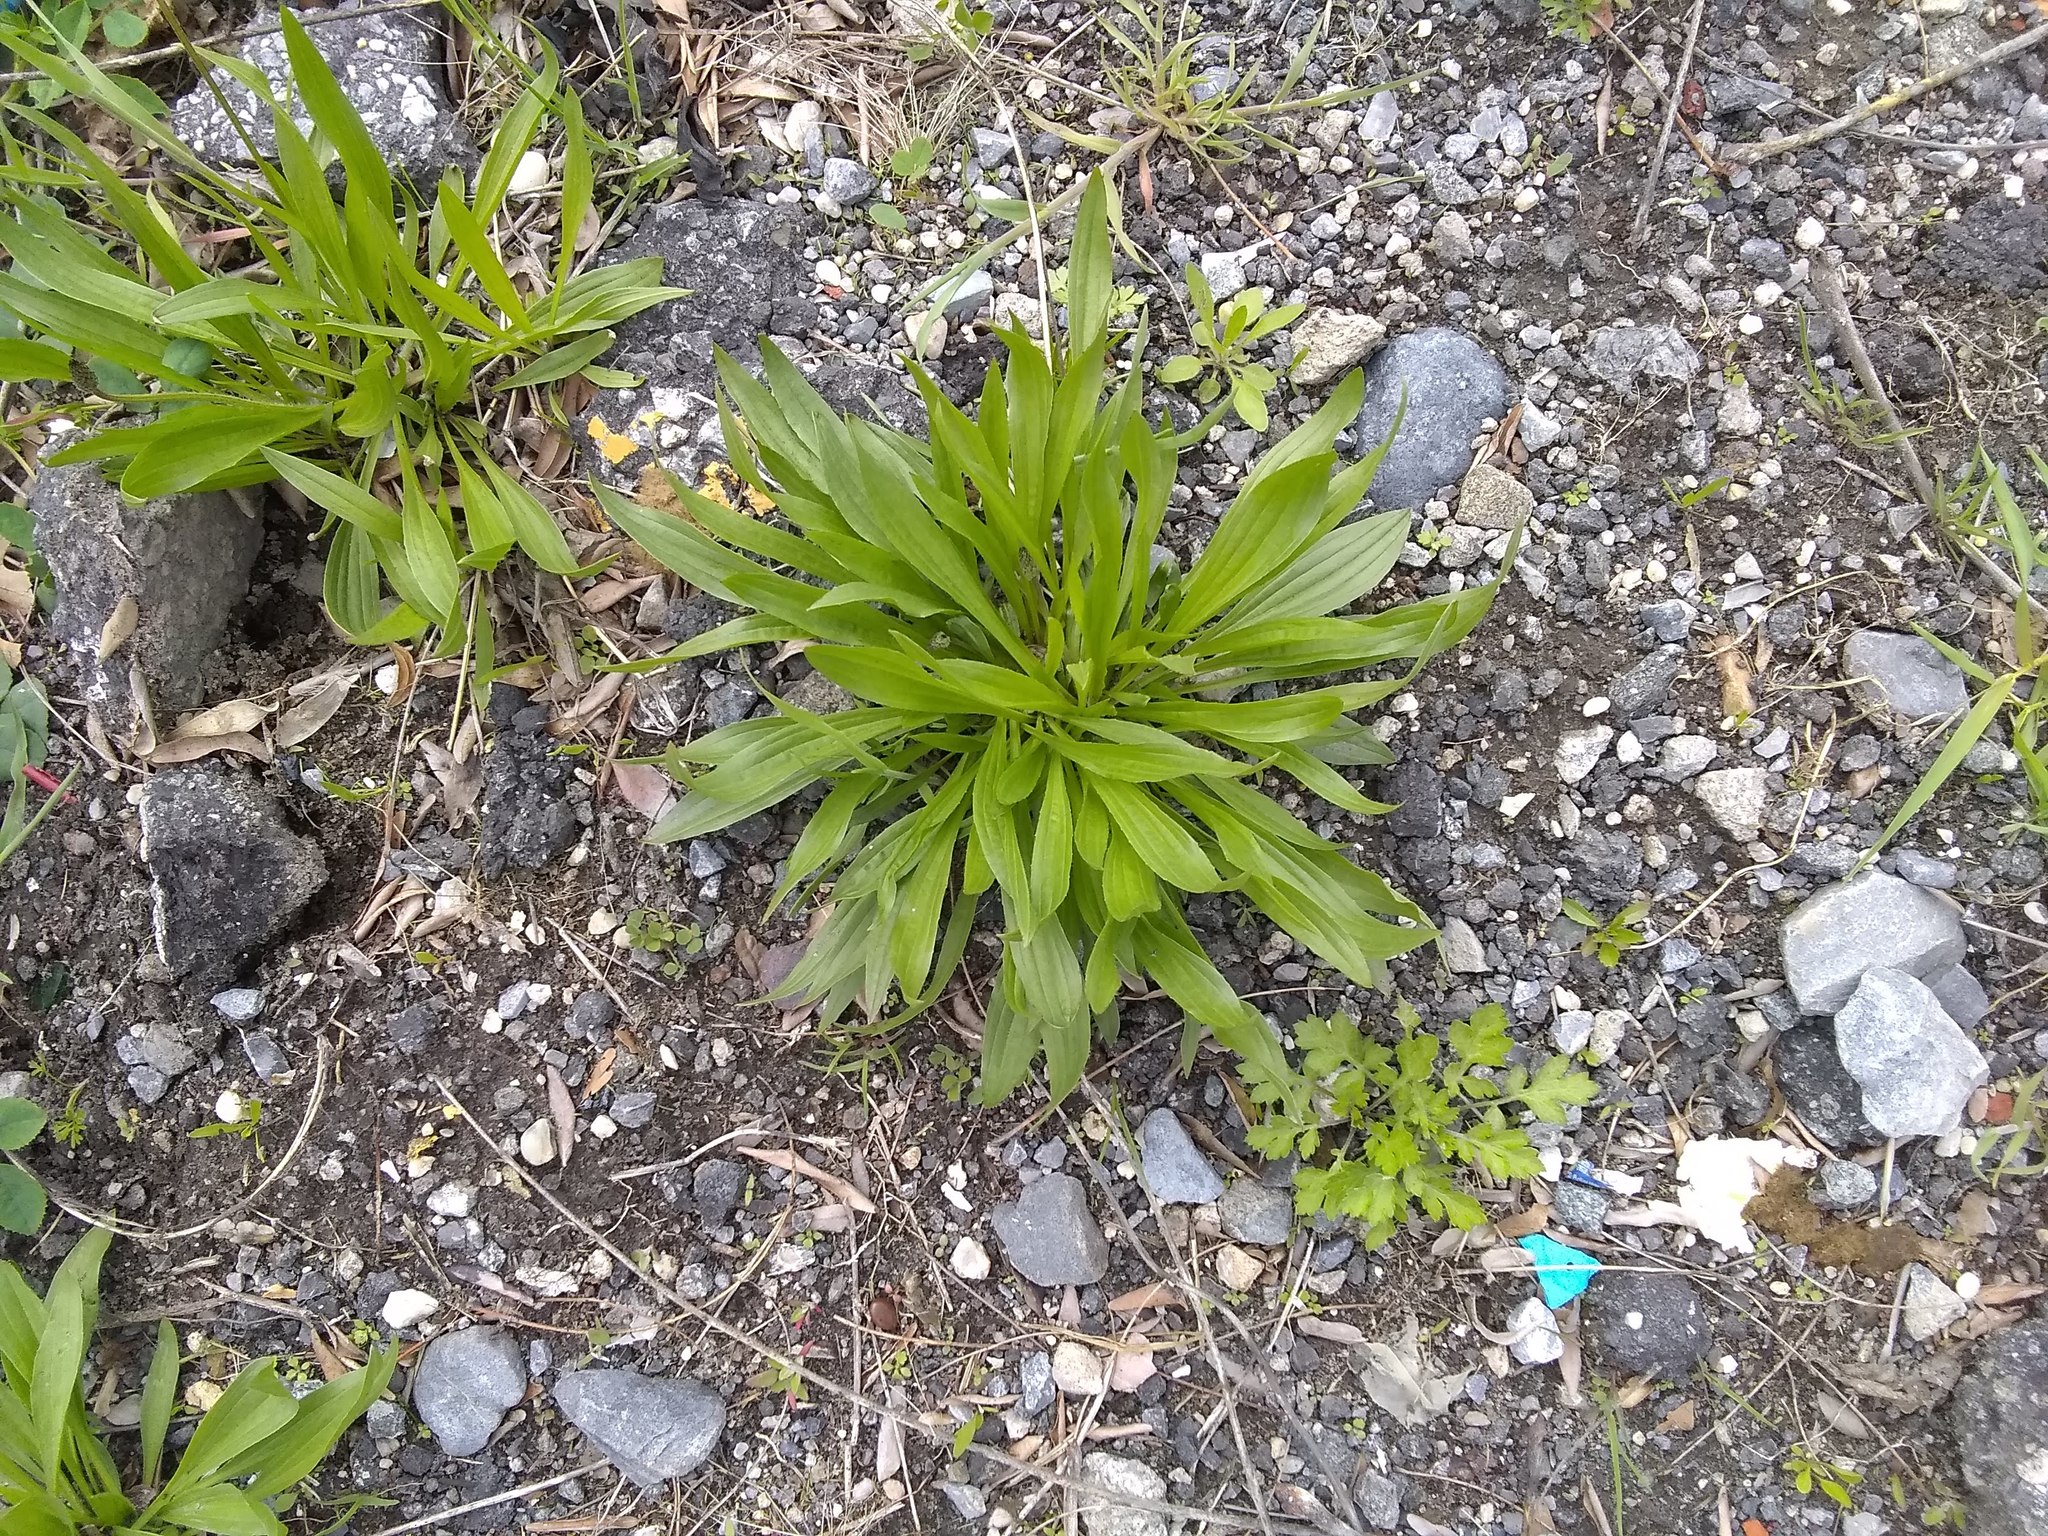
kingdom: Plantae
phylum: Tracheophyta
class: Magnoliopsida
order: Lamiales
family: Plantaginaceae
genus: Plantago
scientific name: Plantago lanceolata
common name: Ribwort plantain
